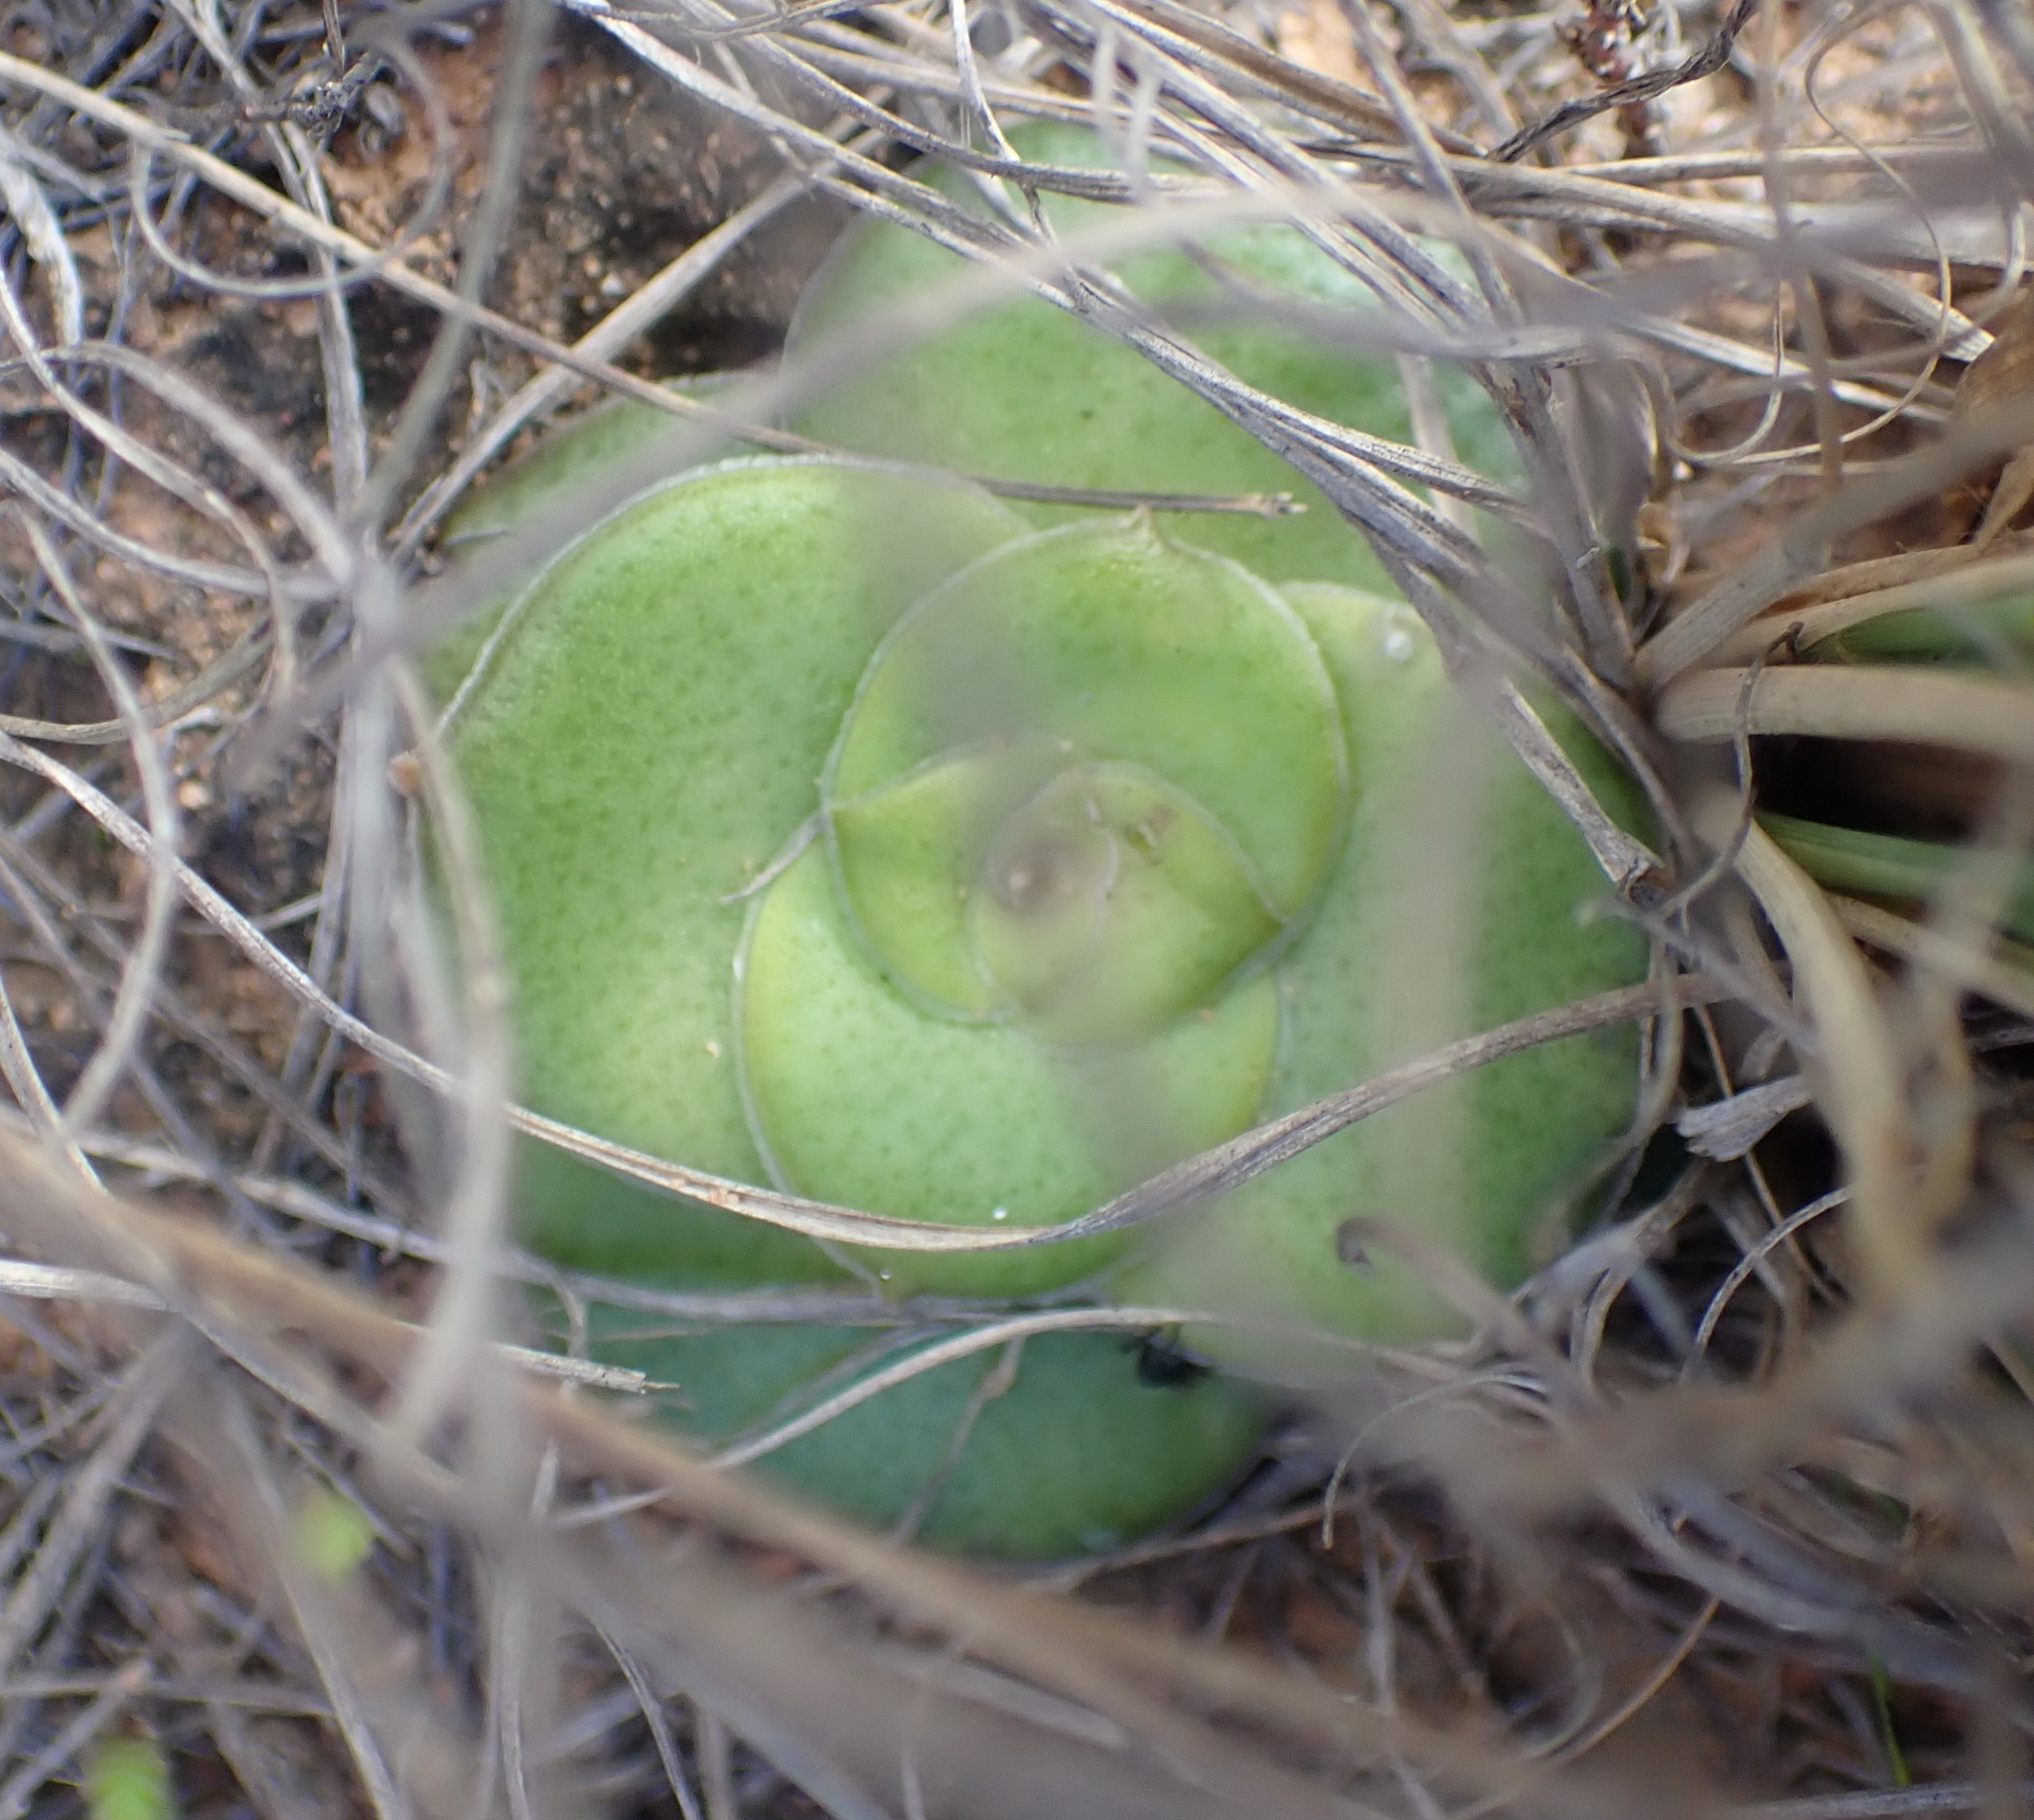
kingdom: Plantae
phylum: Tracheophyta
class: Magnoliopsida
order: Saxifragales
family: Crassulaceae
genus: Crassula
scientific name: Crassula hemisphaerica
